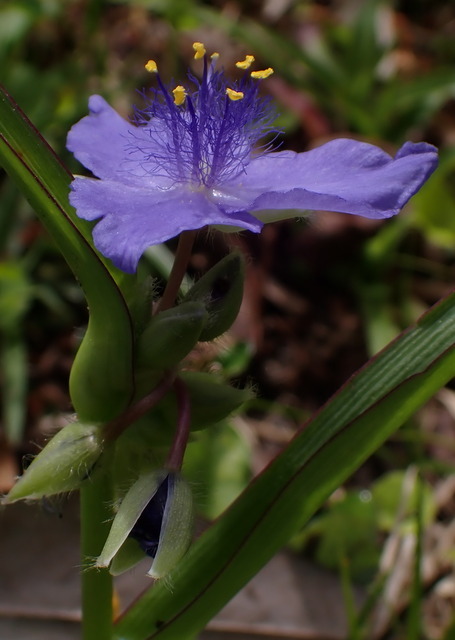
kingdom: Plantae
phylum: Tracheophyta
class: Liliopsida
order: Commelinales
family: Commelinaceae
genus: Tradescantia
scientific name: Tradescantia ohiensis
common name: Ohio spiderwort
